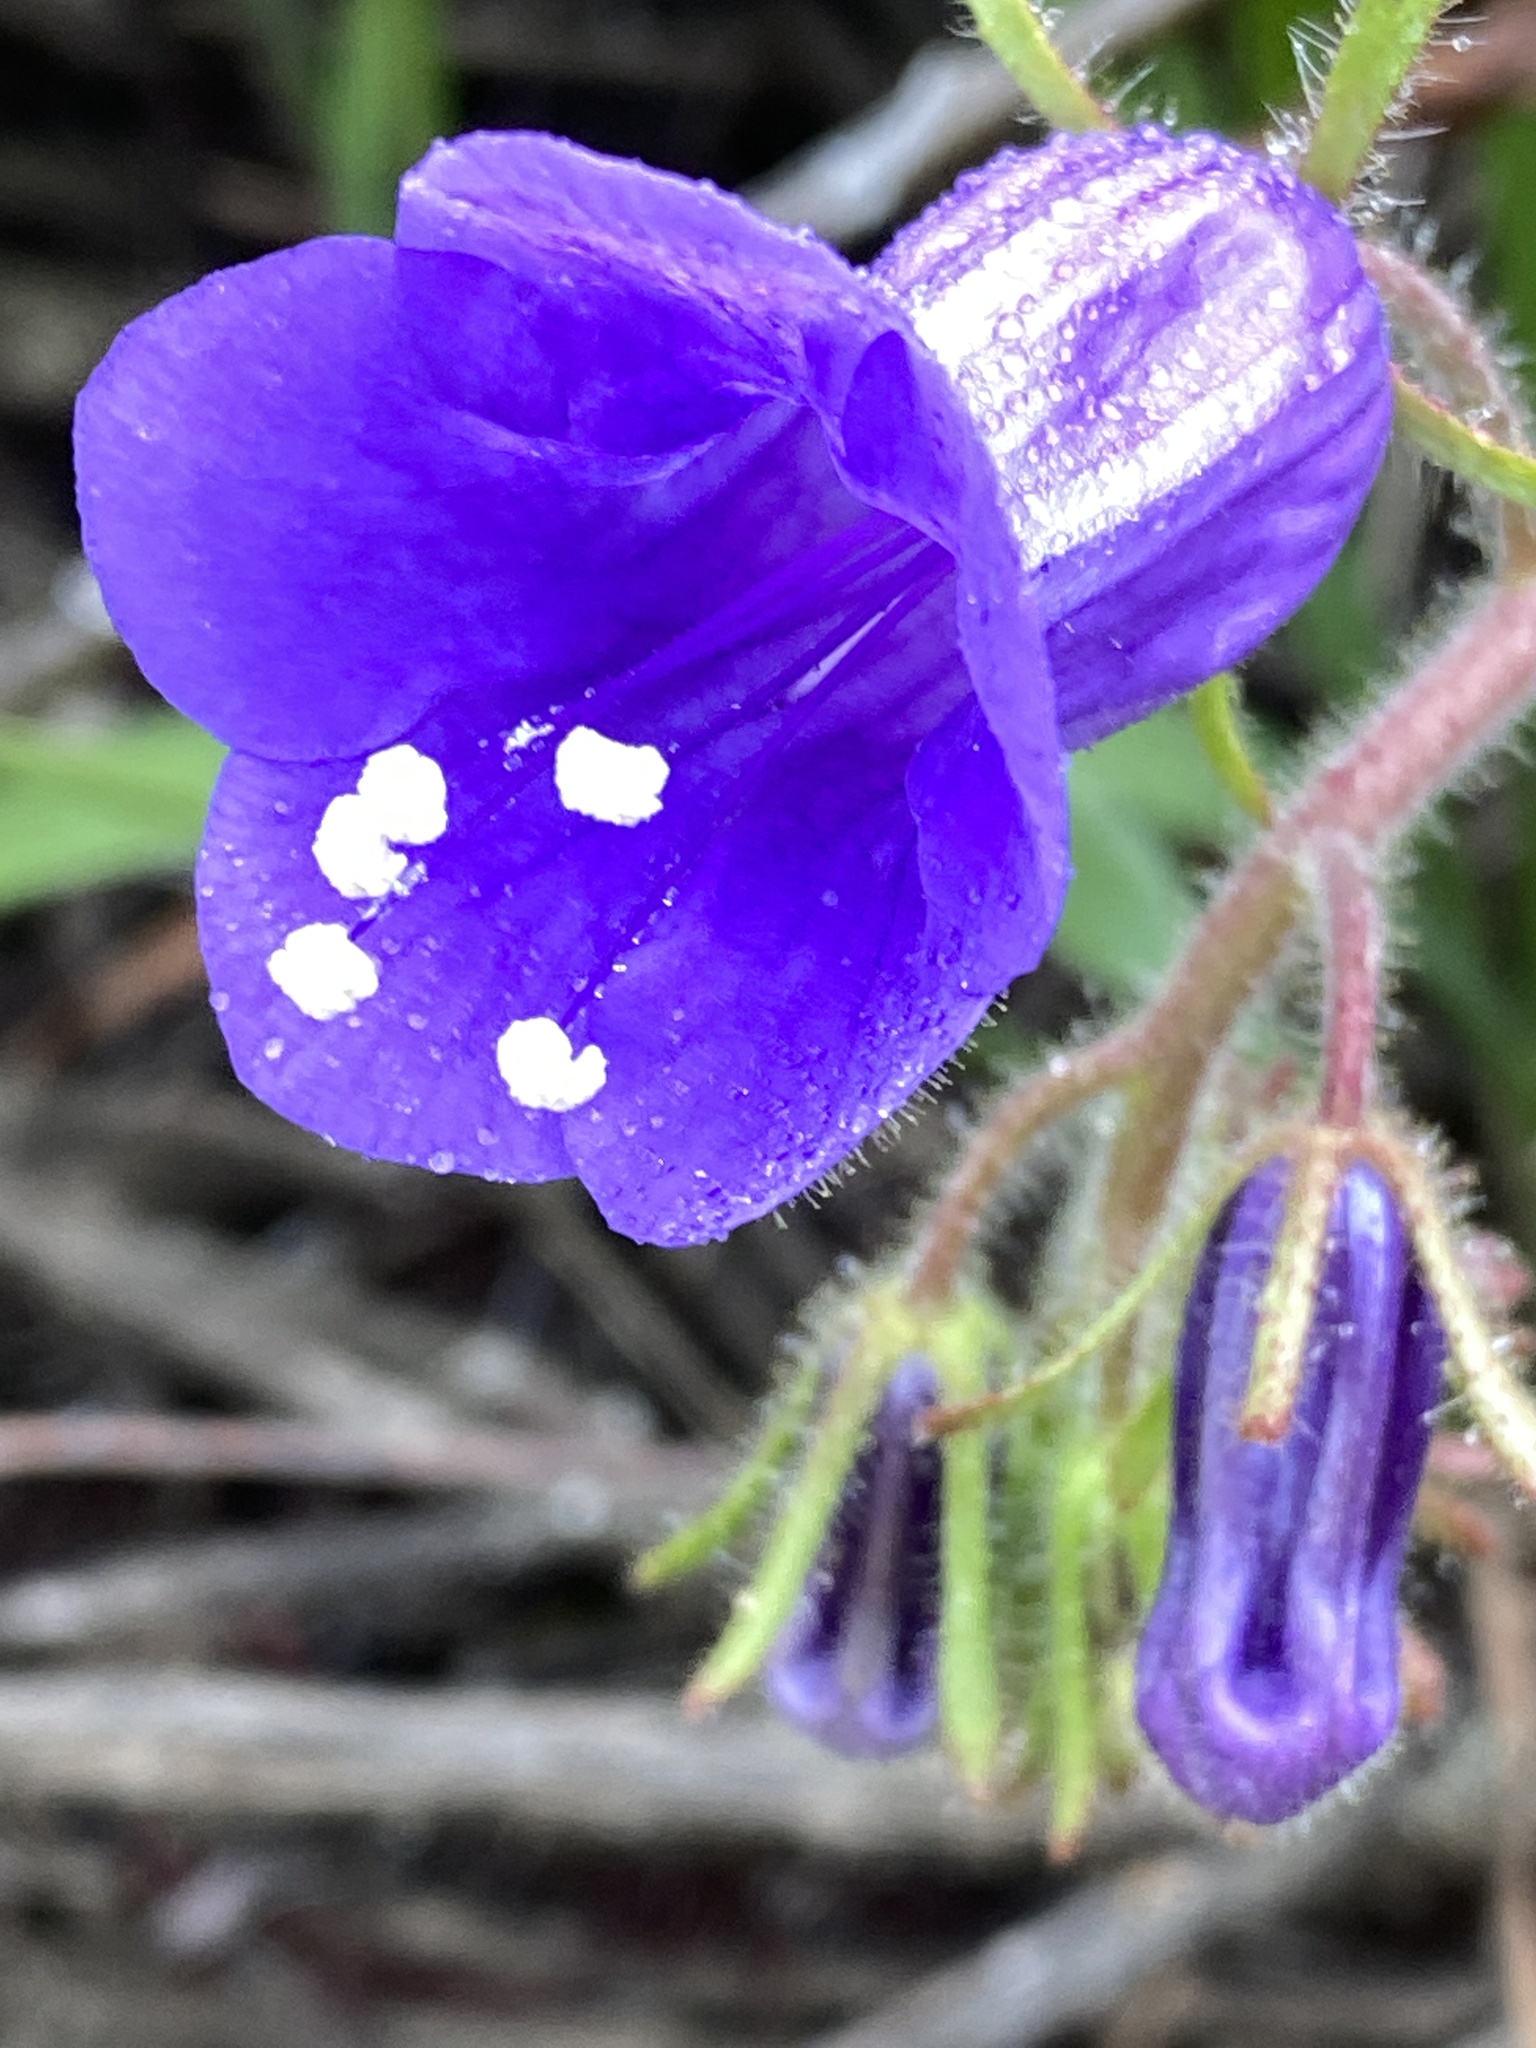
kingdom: Plantae
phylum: Tracheophyta
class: Magnoliopsida
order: Boraginales
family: Hydrophyllaceae
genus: Phacelia
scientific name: Phacelia minor
